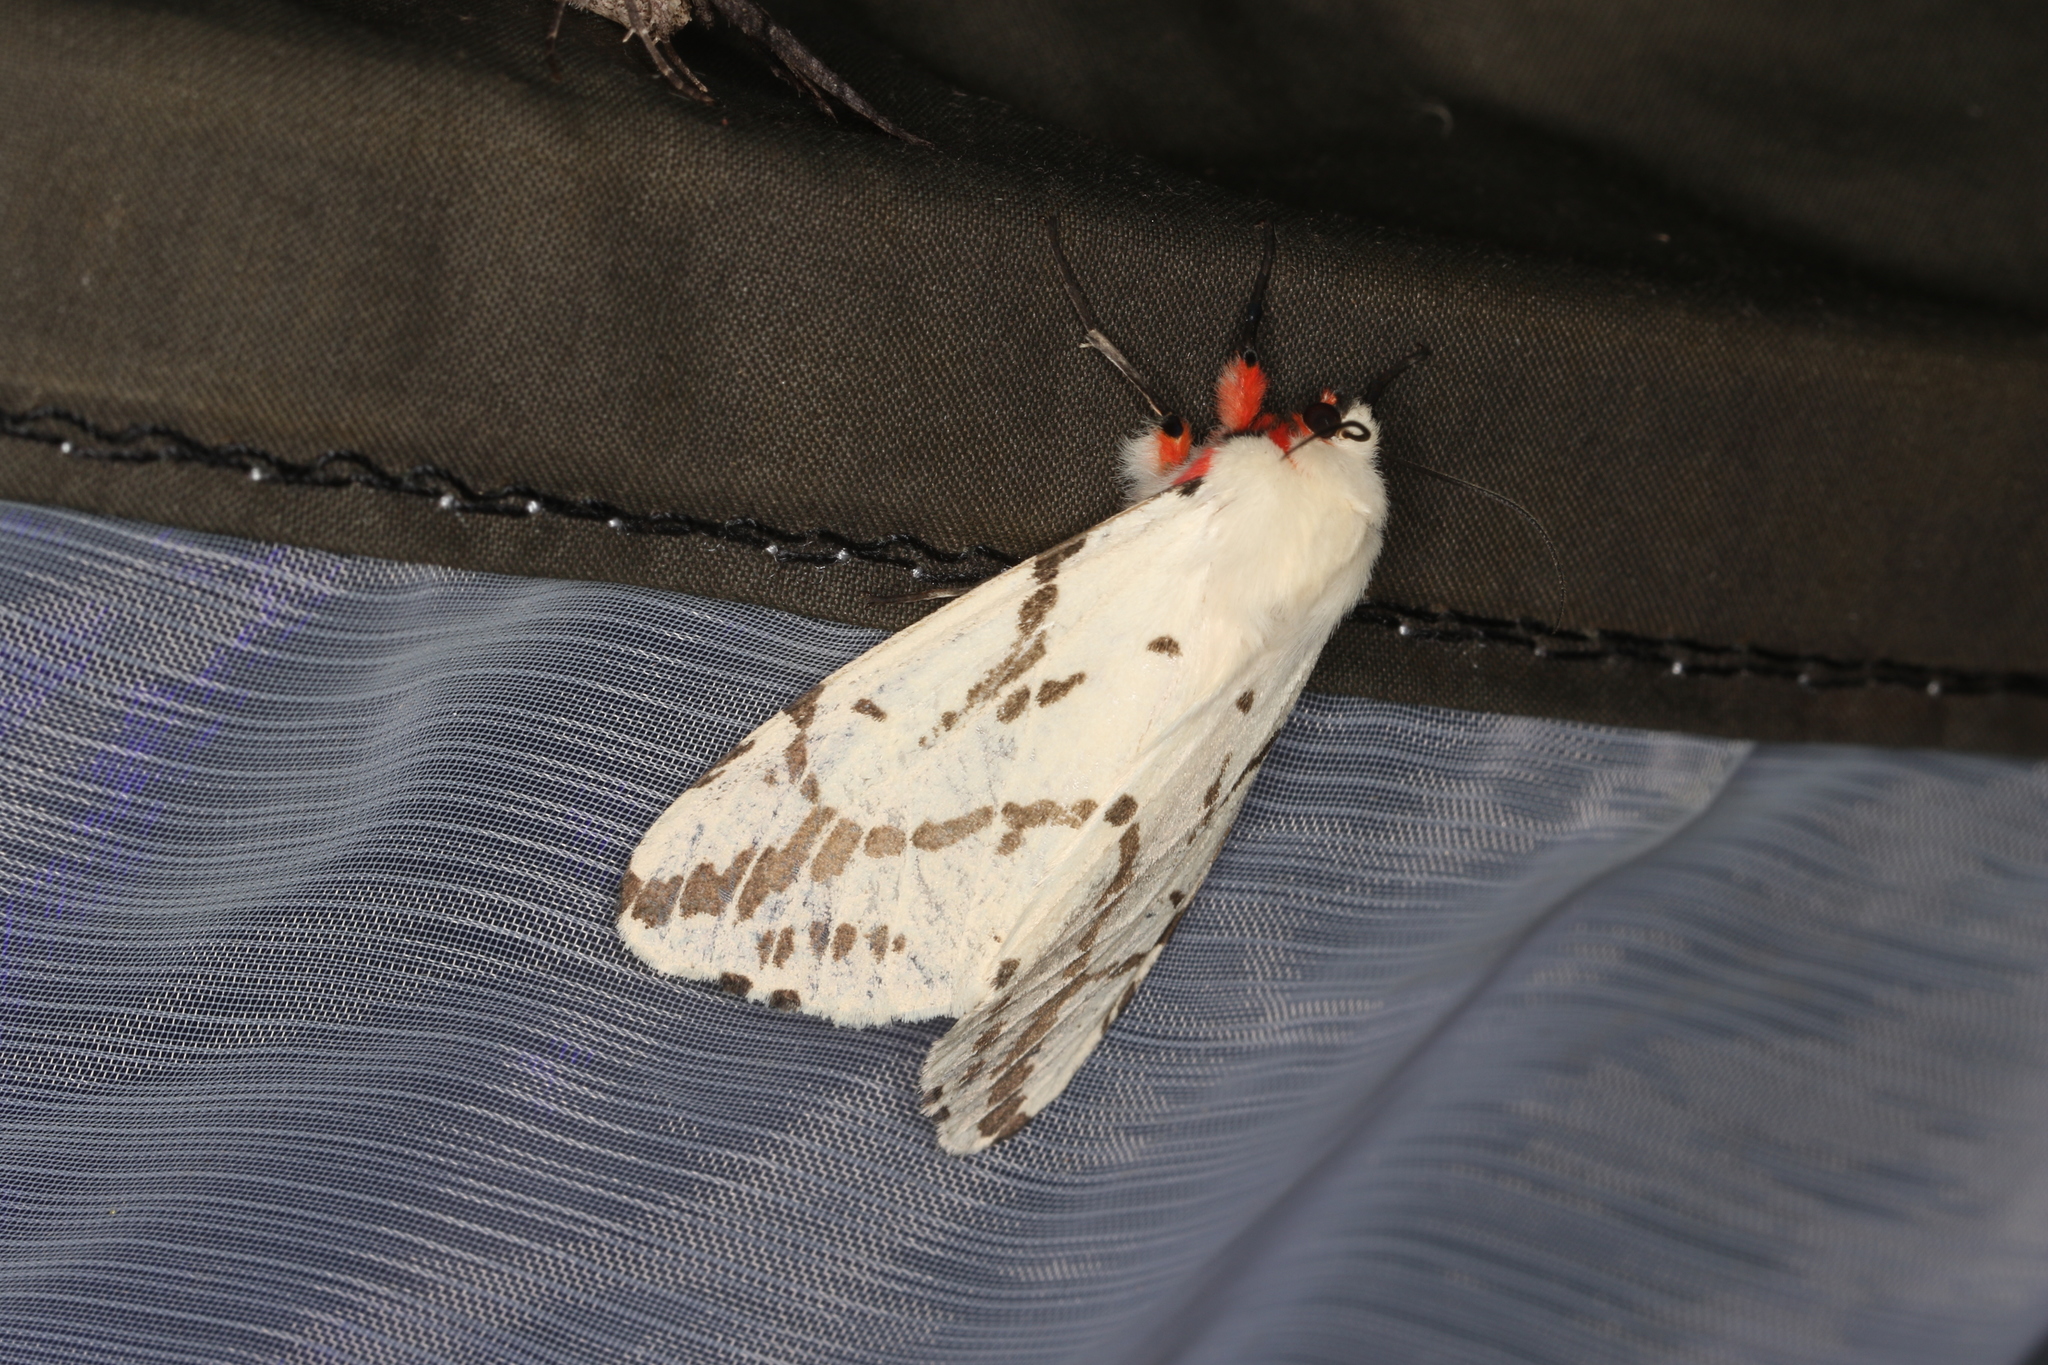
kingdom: Animalia
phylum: Arthropoda
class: Insecta
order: Lepidoptera
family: Erebidae
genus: Ardices
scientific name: Ardices canescens
